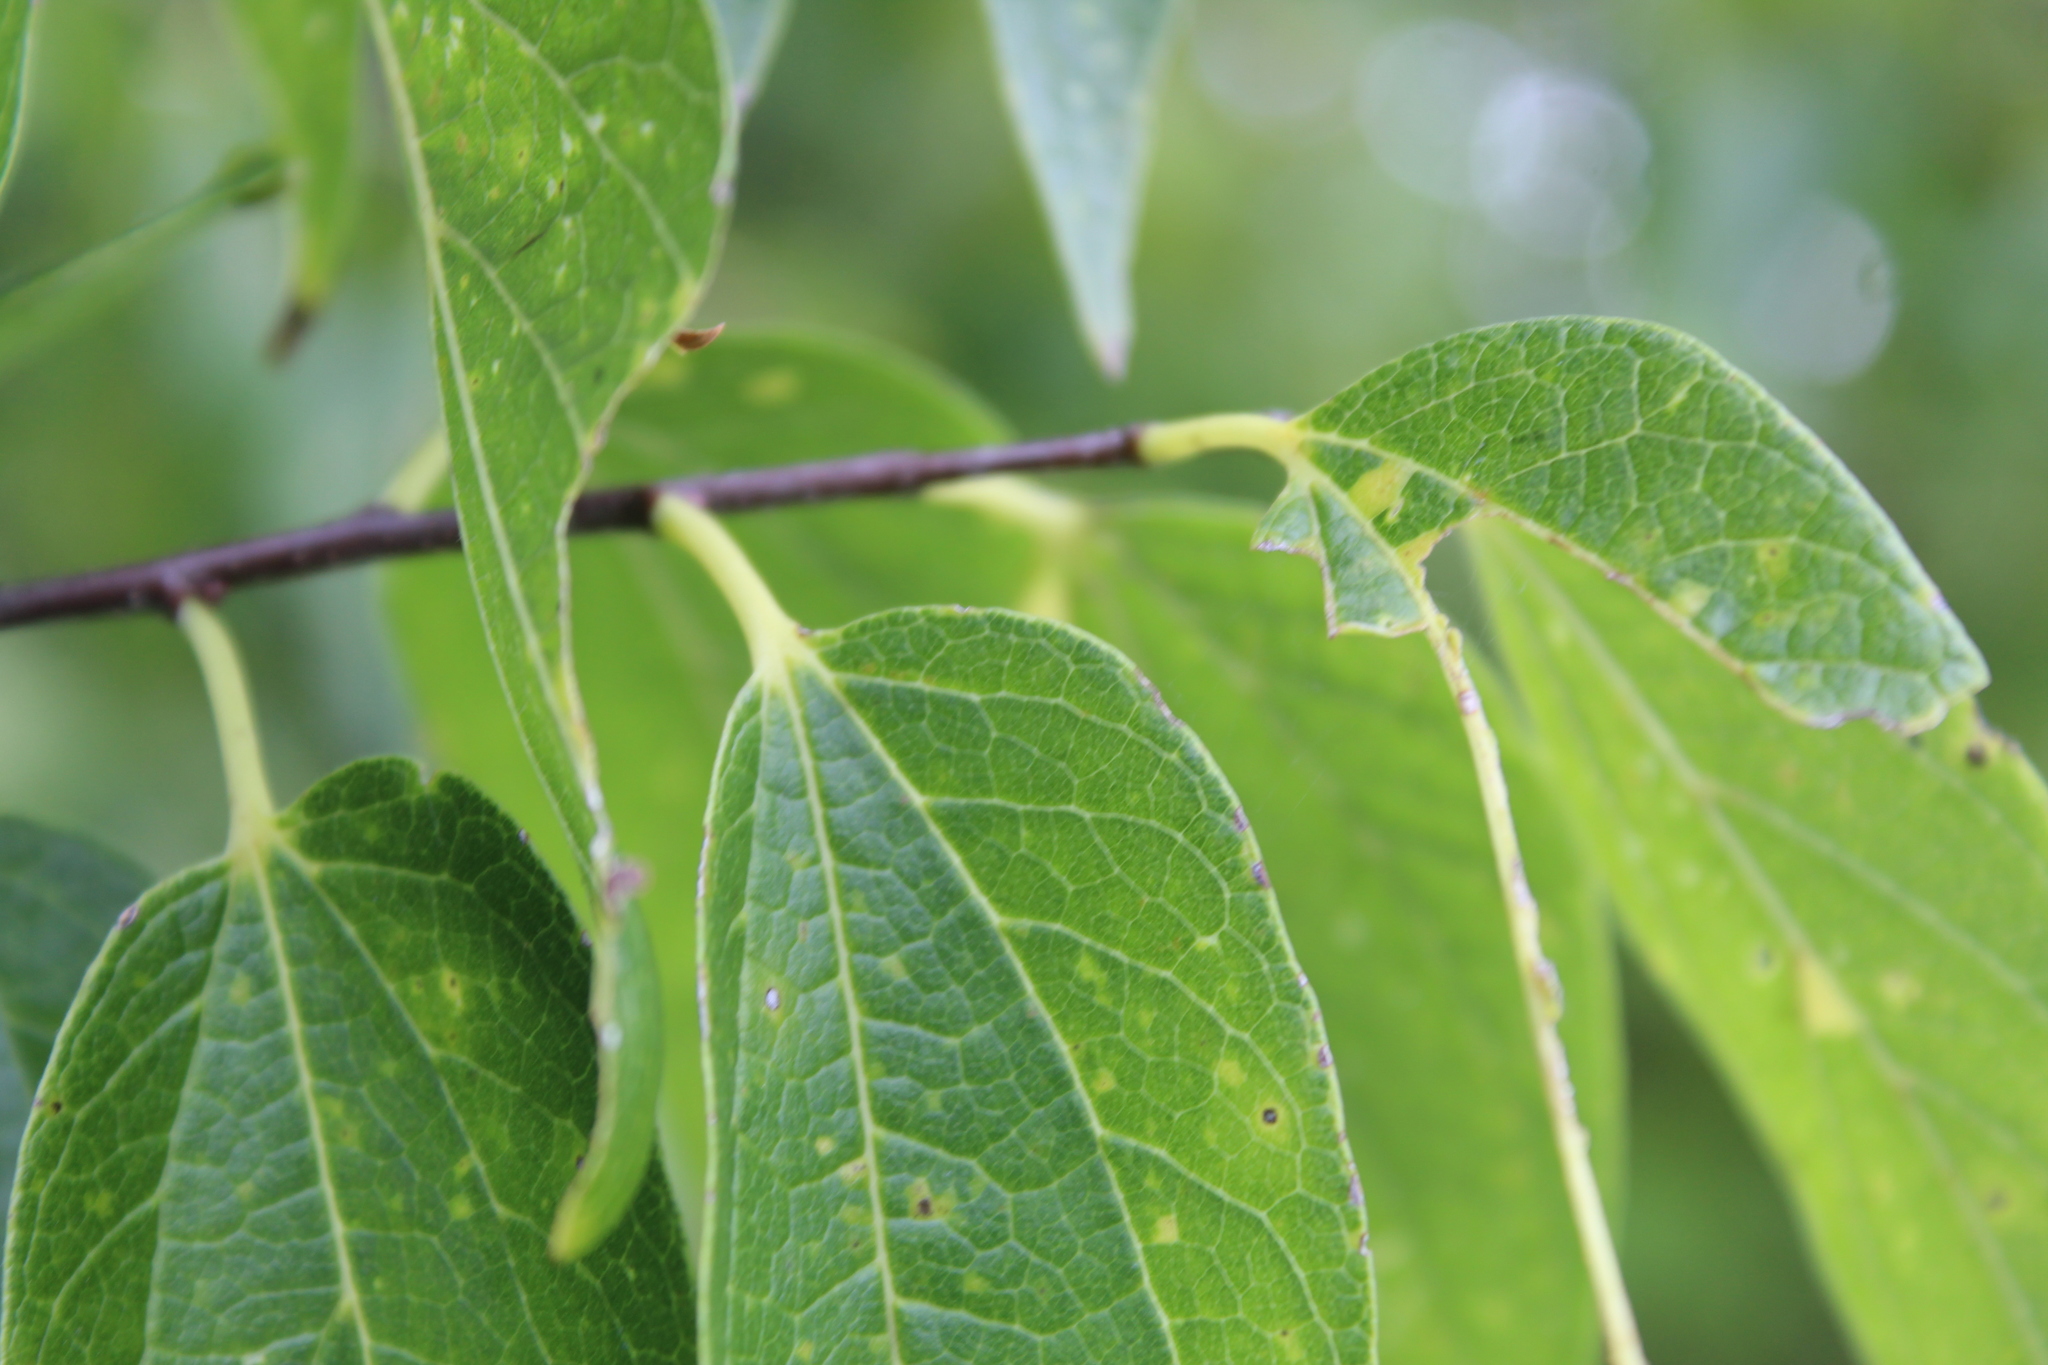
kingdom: Plantae
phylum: Tracheophyta
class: Magnoliopsida
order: Rosales
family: Cannabaceae
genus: Celtis
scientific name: Celtis laevigata
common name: Sugarberry
